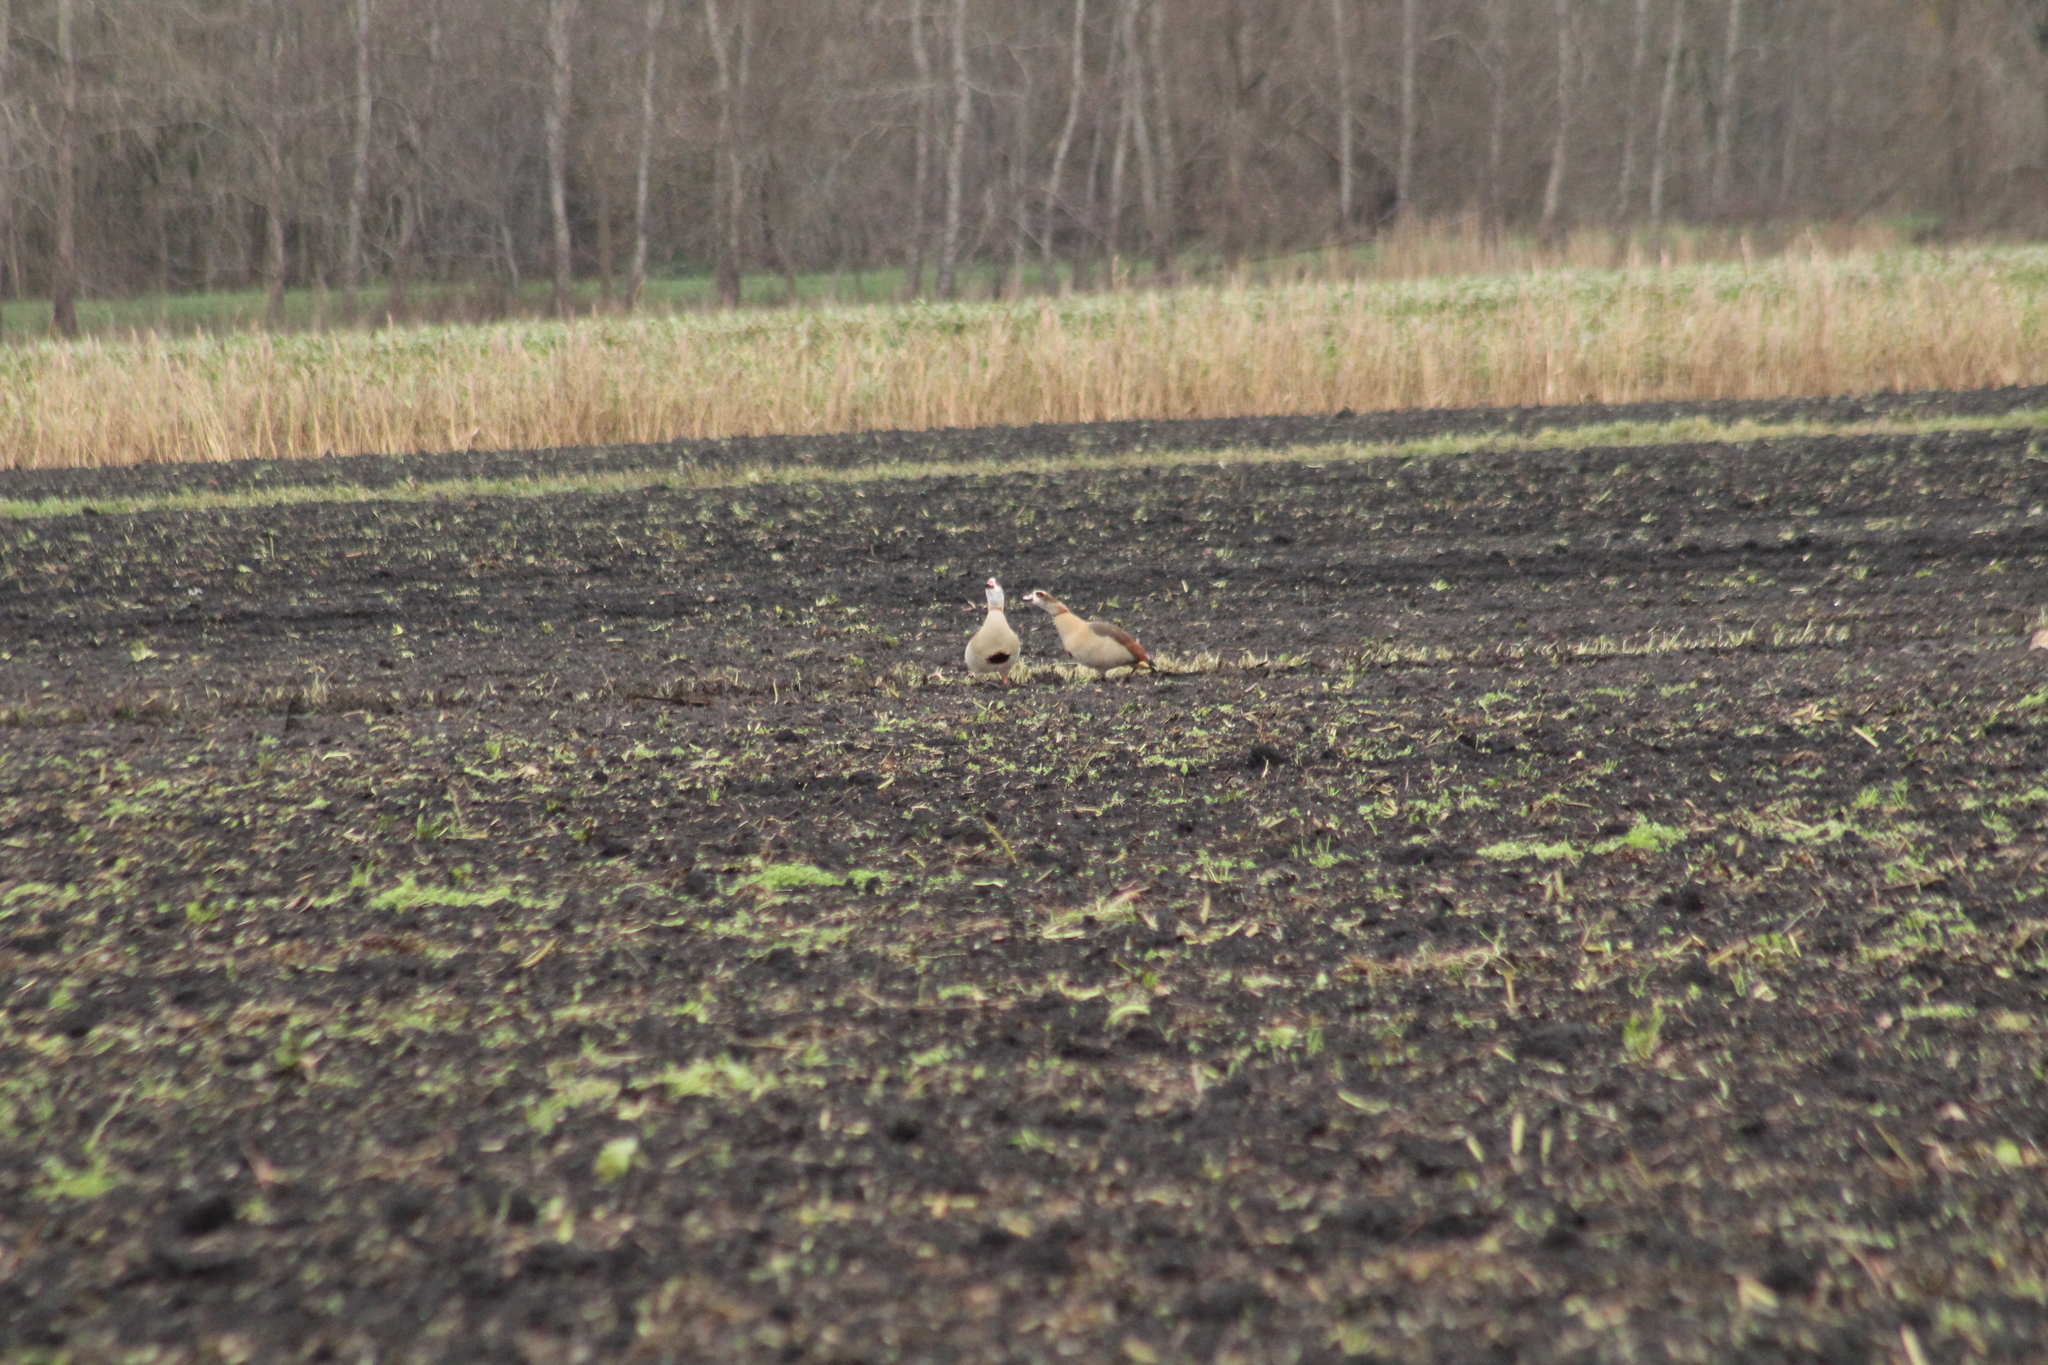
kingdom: Animalia
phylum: Chordata
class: Aves
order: Anseriformes
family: Anatidae
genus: Alopochen
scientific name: Alopochen aegyptiaca
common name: Egyptian goose
